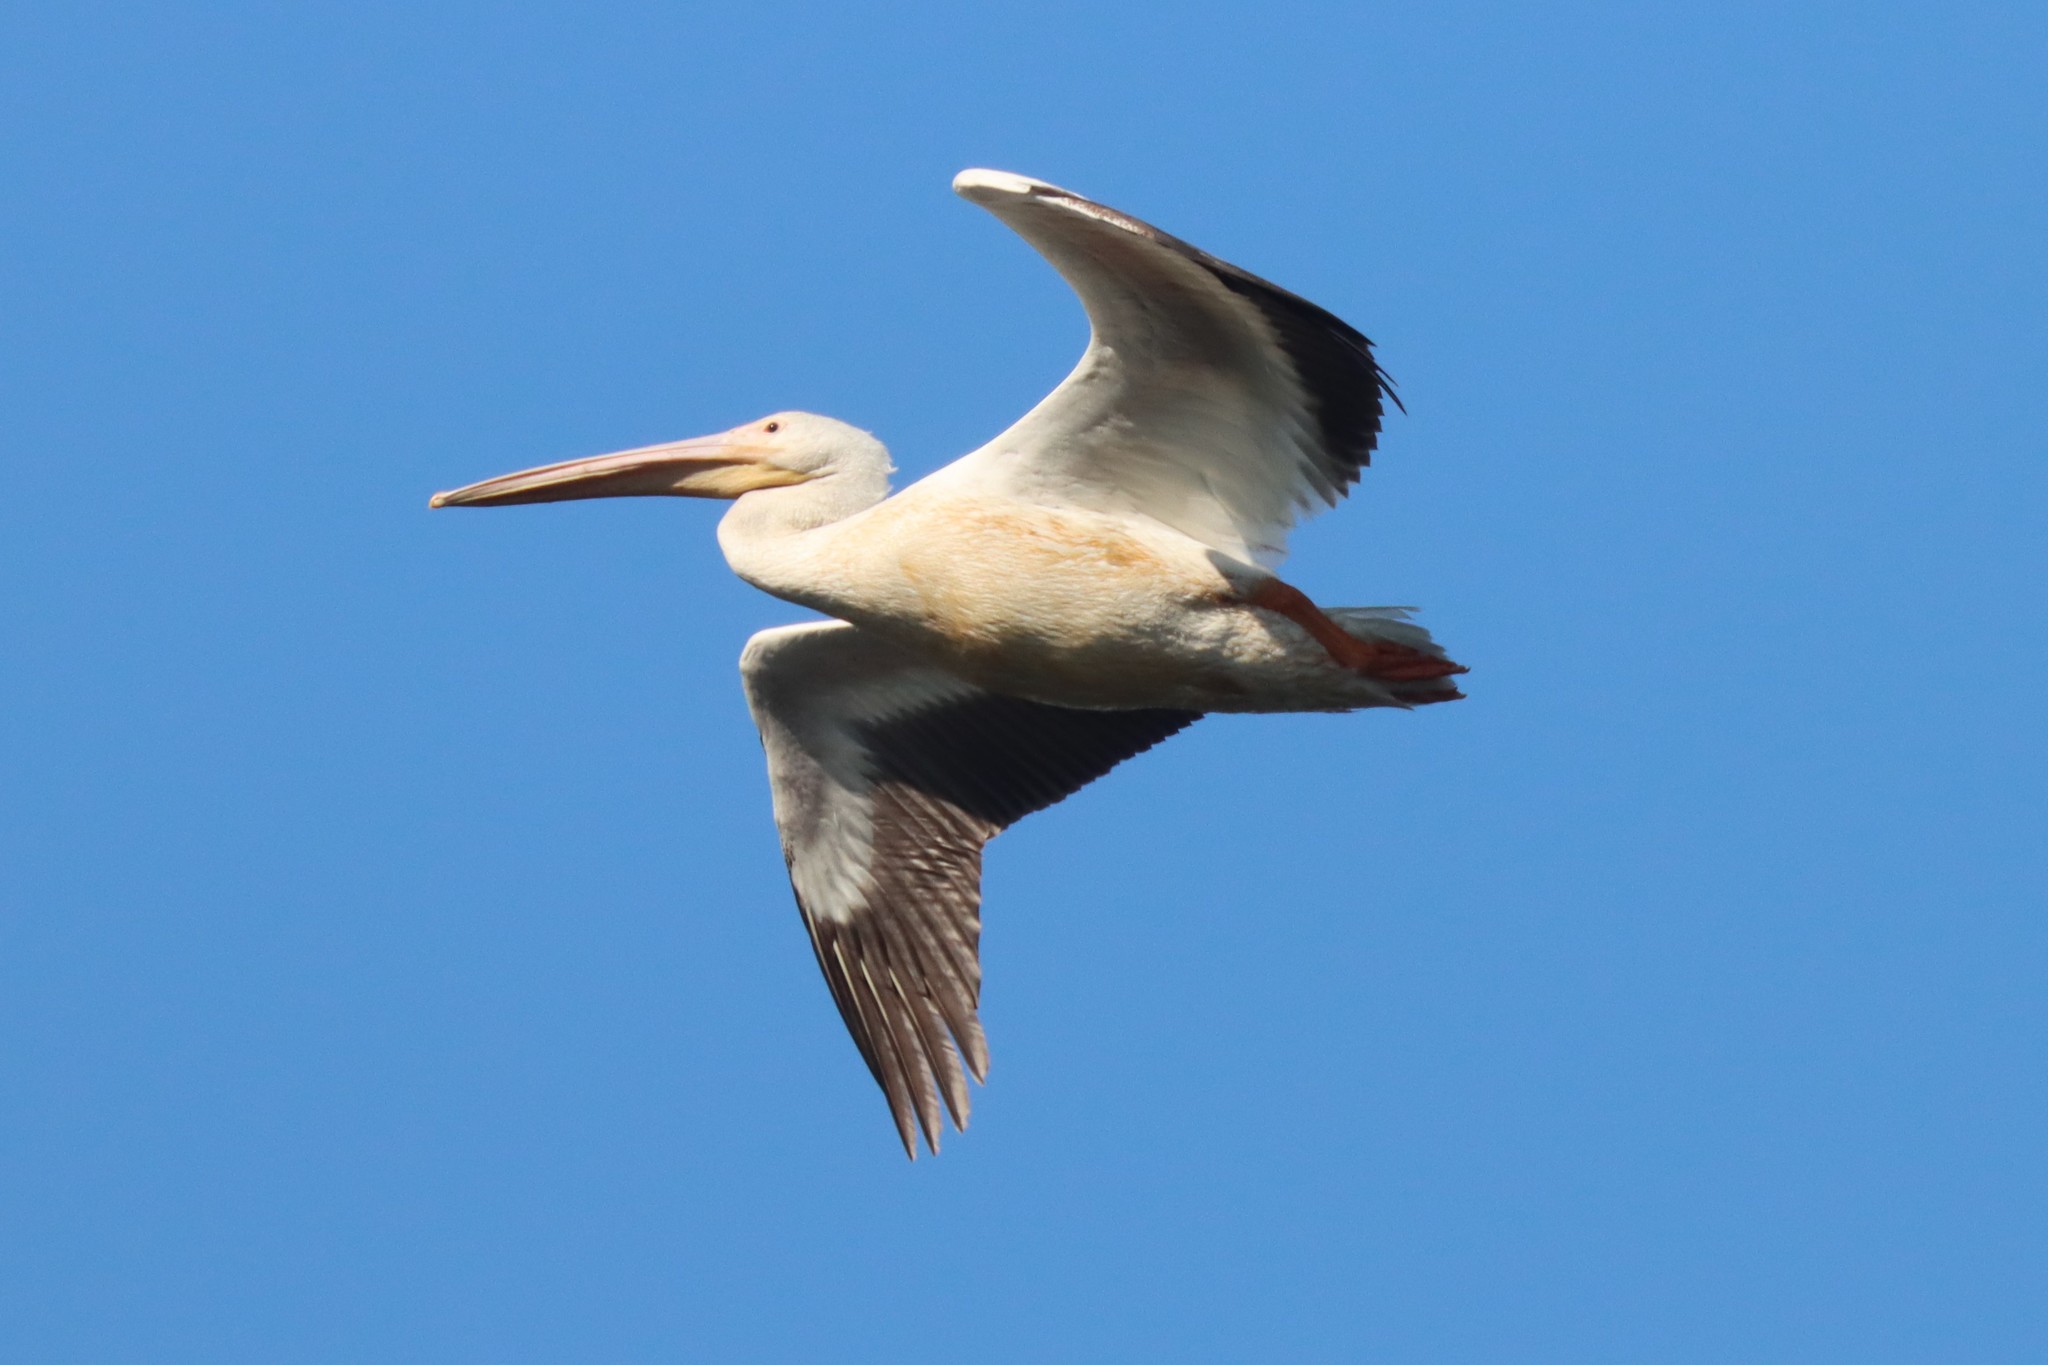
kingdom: Animalia
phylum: Chordata
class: Aves
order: Pelecaniformes
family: Pelecanidae
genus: Pelecanus
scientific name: Pelecanus erythrorhynchos
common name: American white pelican
